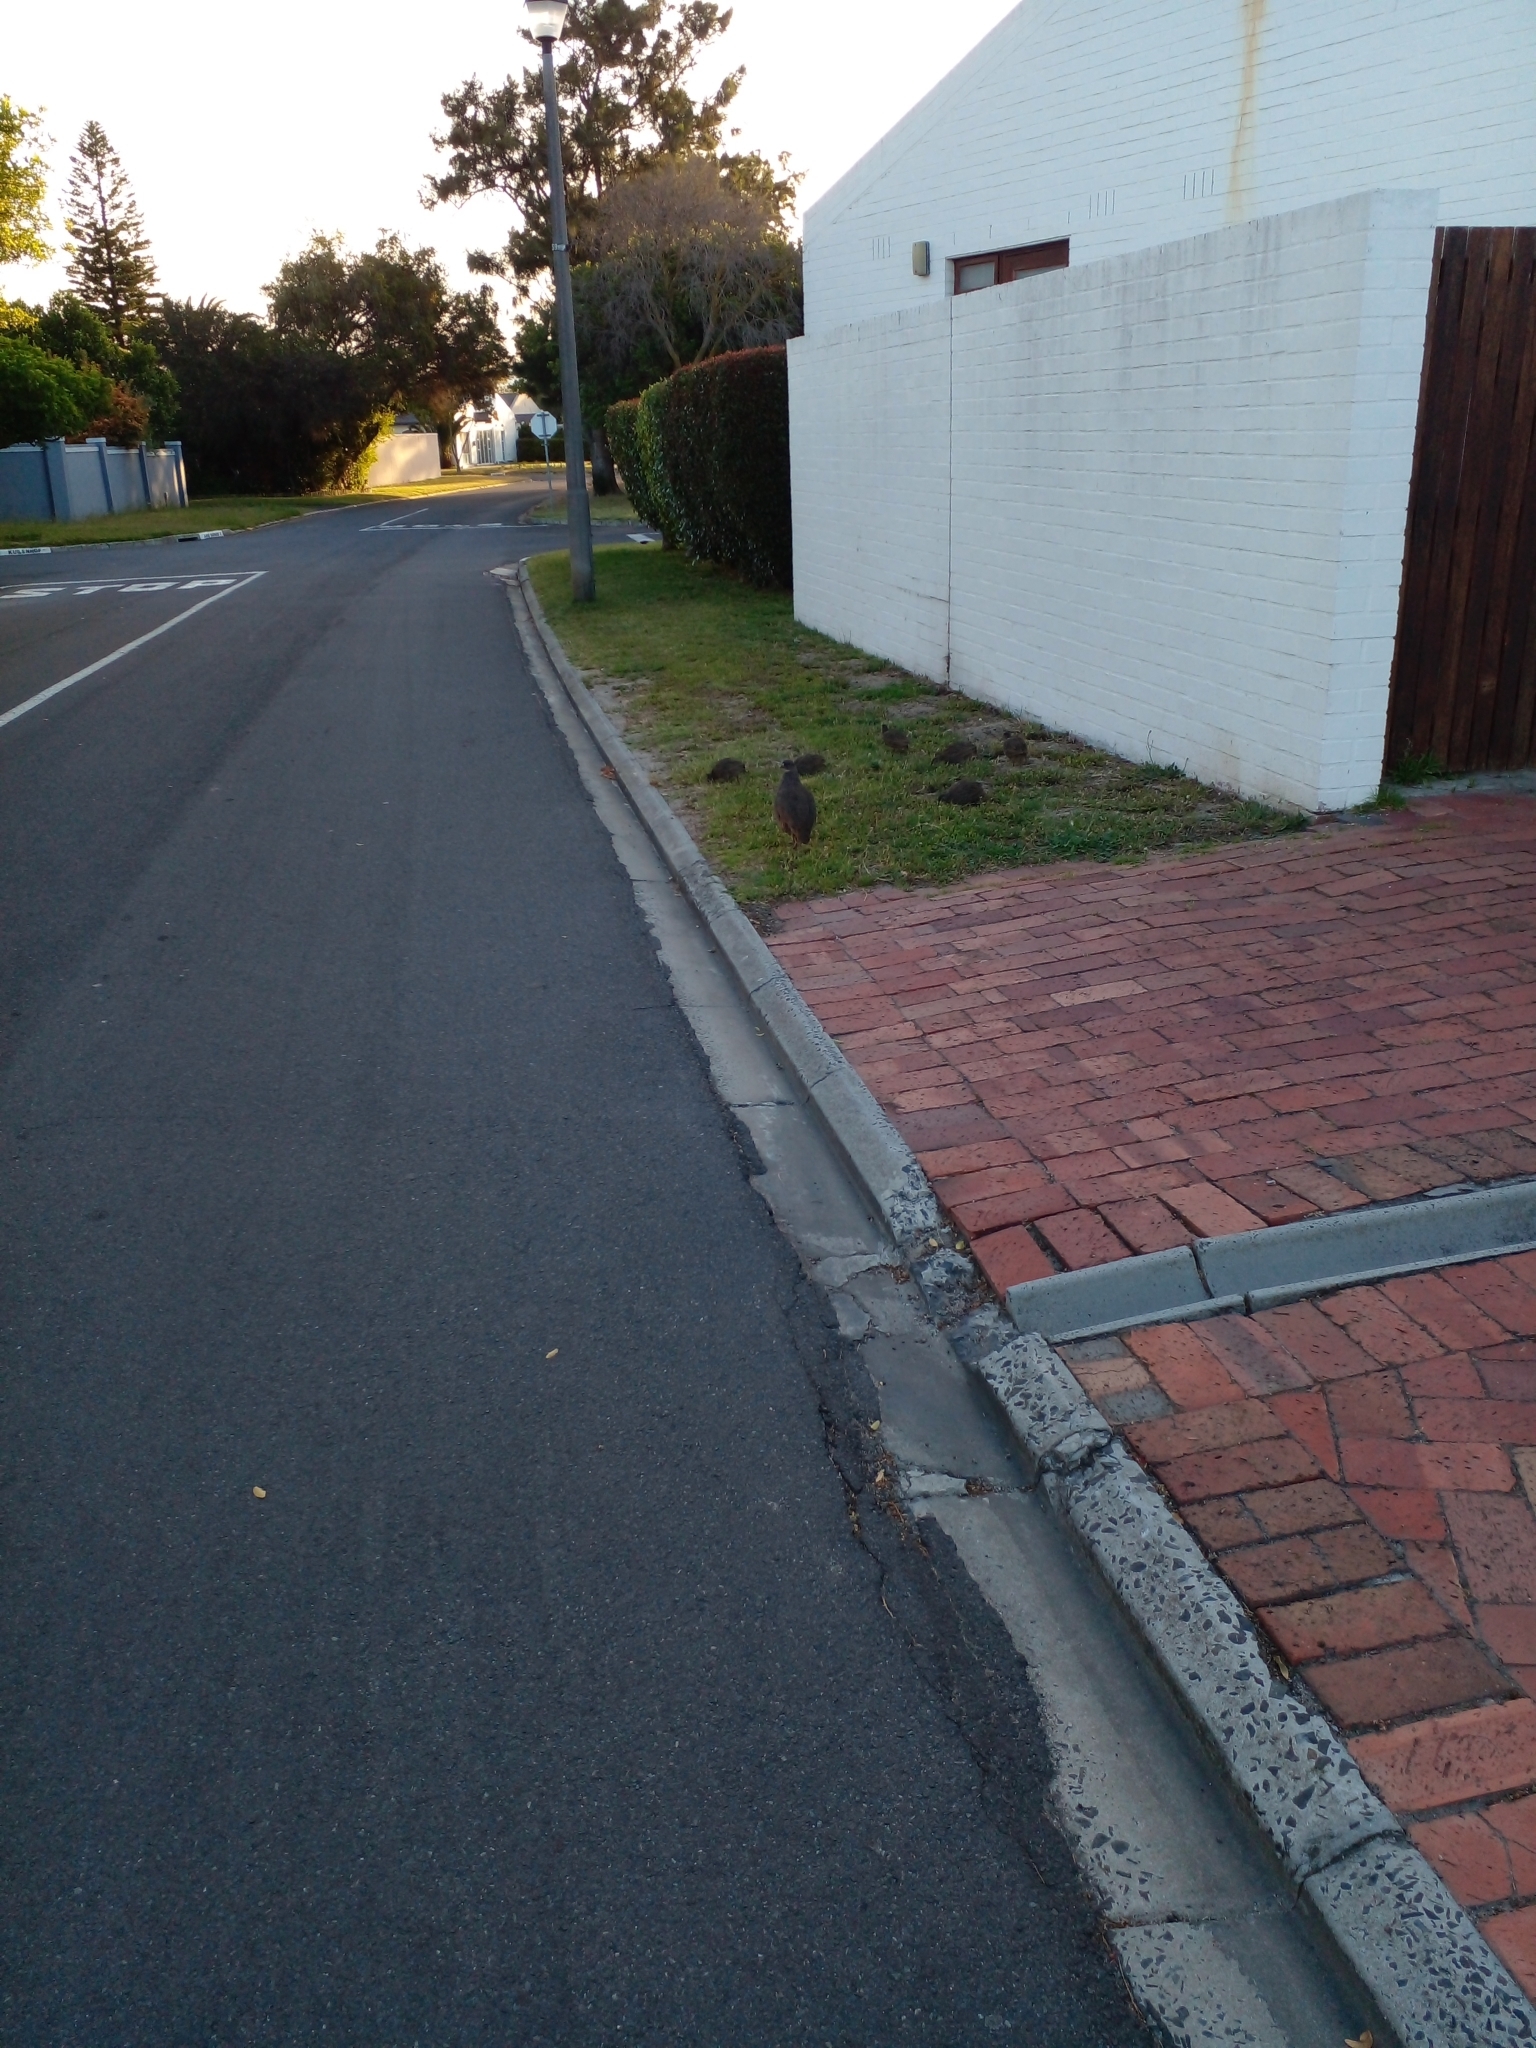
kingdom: Animalia
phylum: Chordata
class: Aves
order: Galliformes
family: Phasianidae
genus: Pternistis
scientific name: Pternistis capensis
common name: Cape spurfowl
